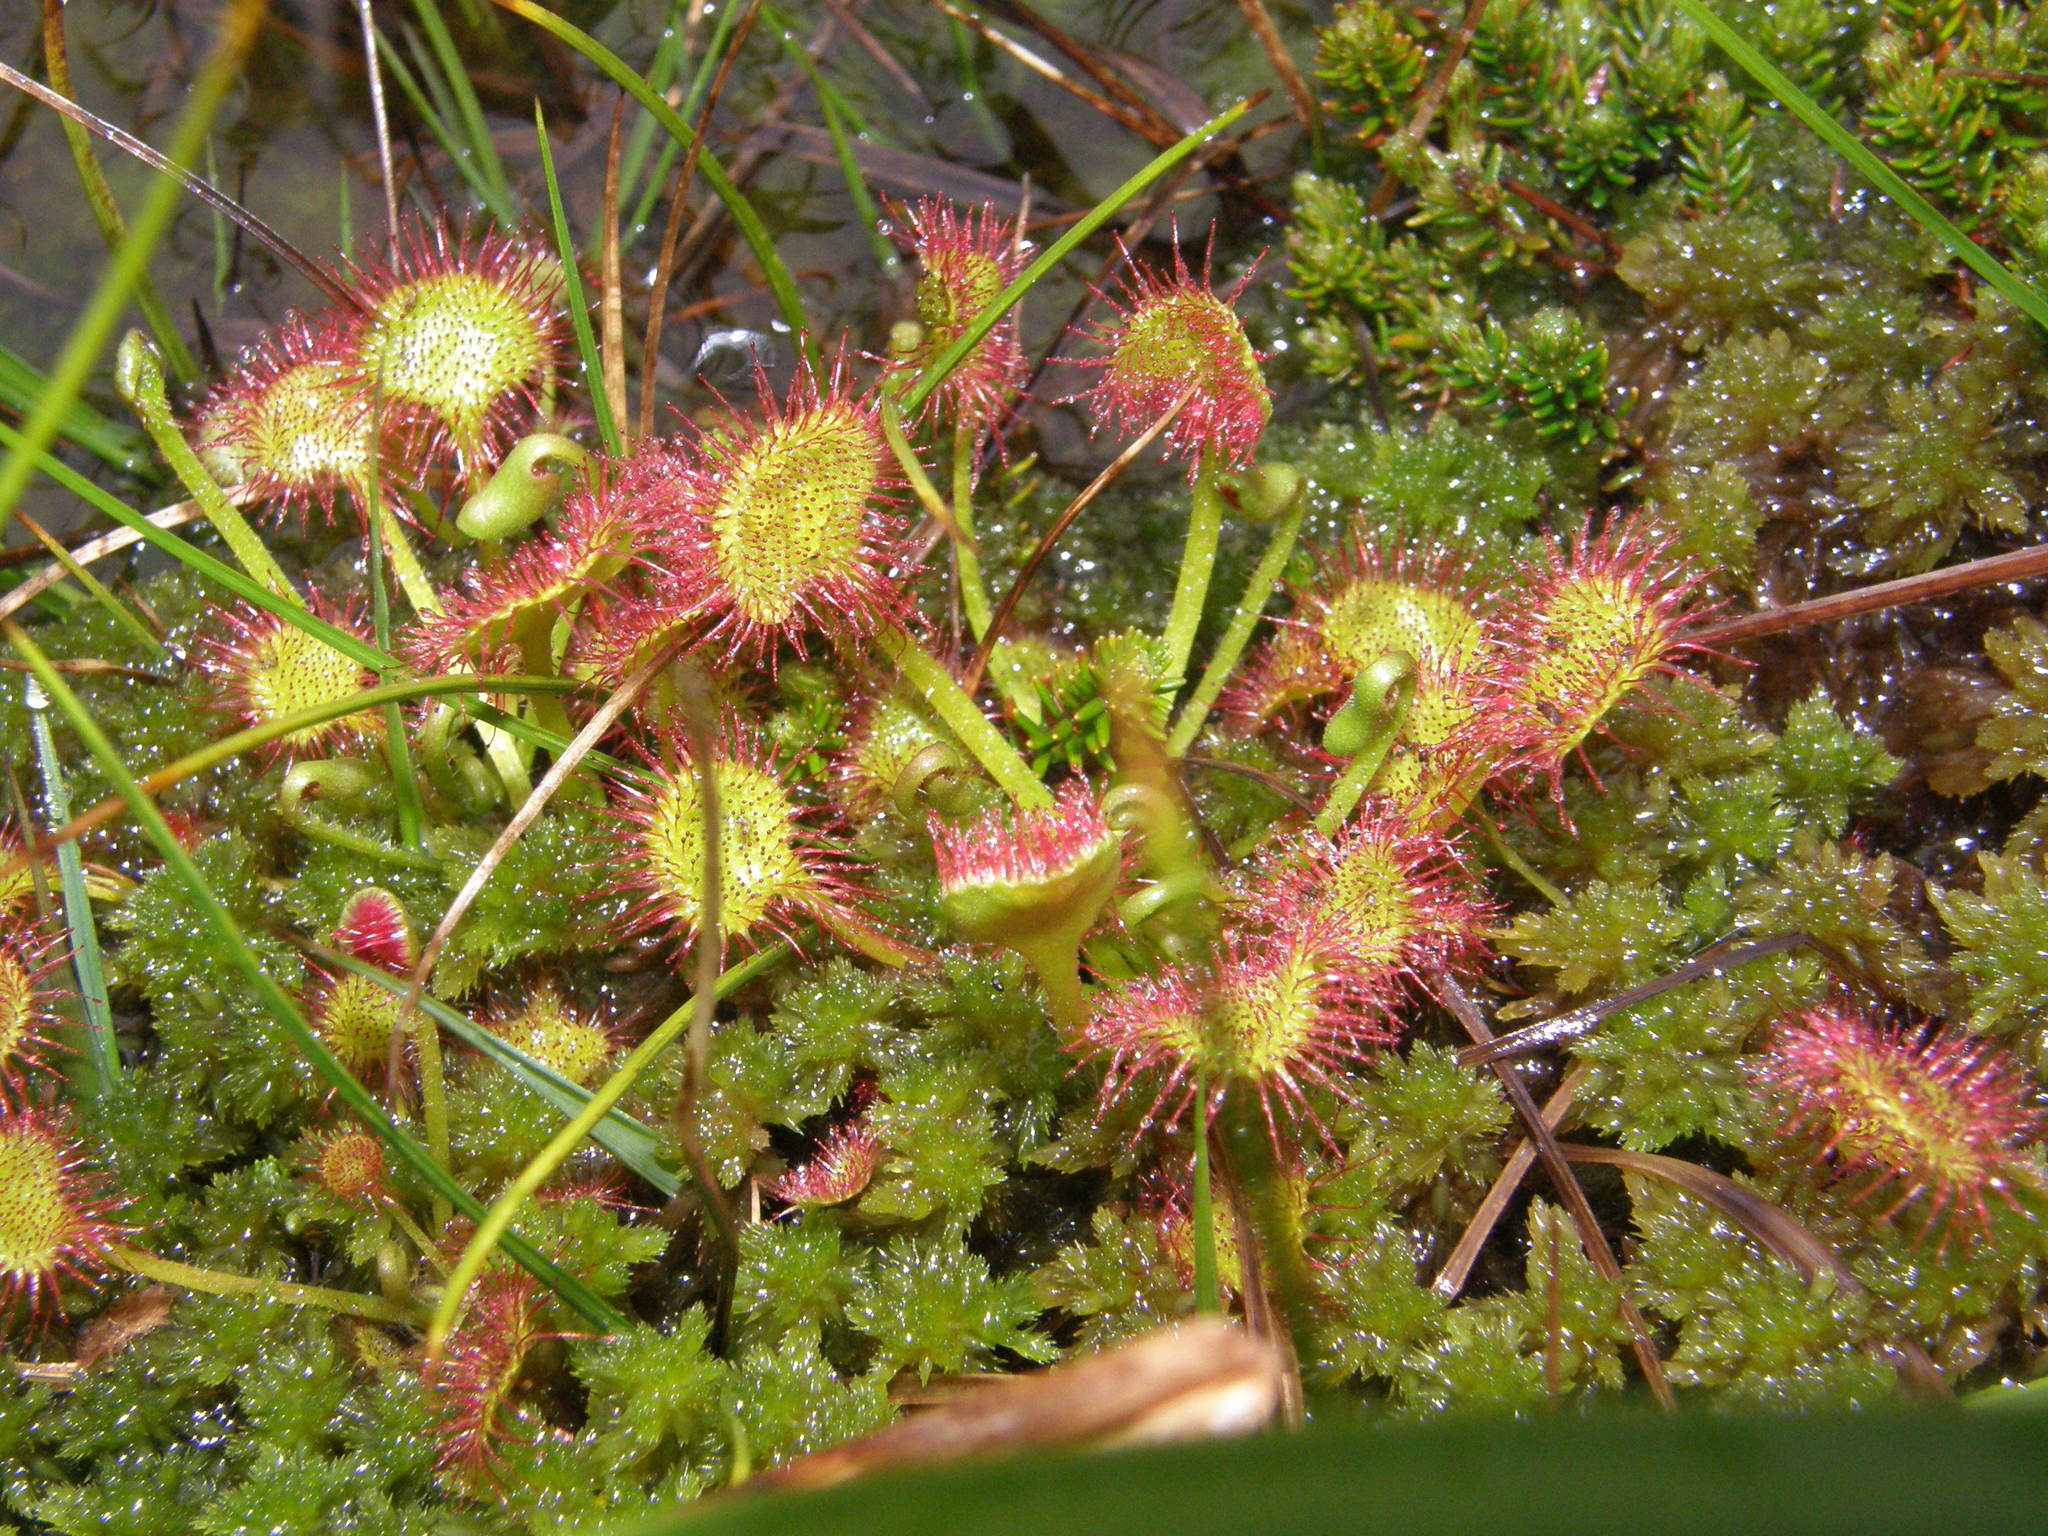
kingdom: Plantae
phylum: Tracheophyta
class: Magnoliopsida
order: Caryophyllales
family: Droseraceae
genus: Drosera
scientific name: Drosera rotundifolia
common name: Round-leaved sundew
